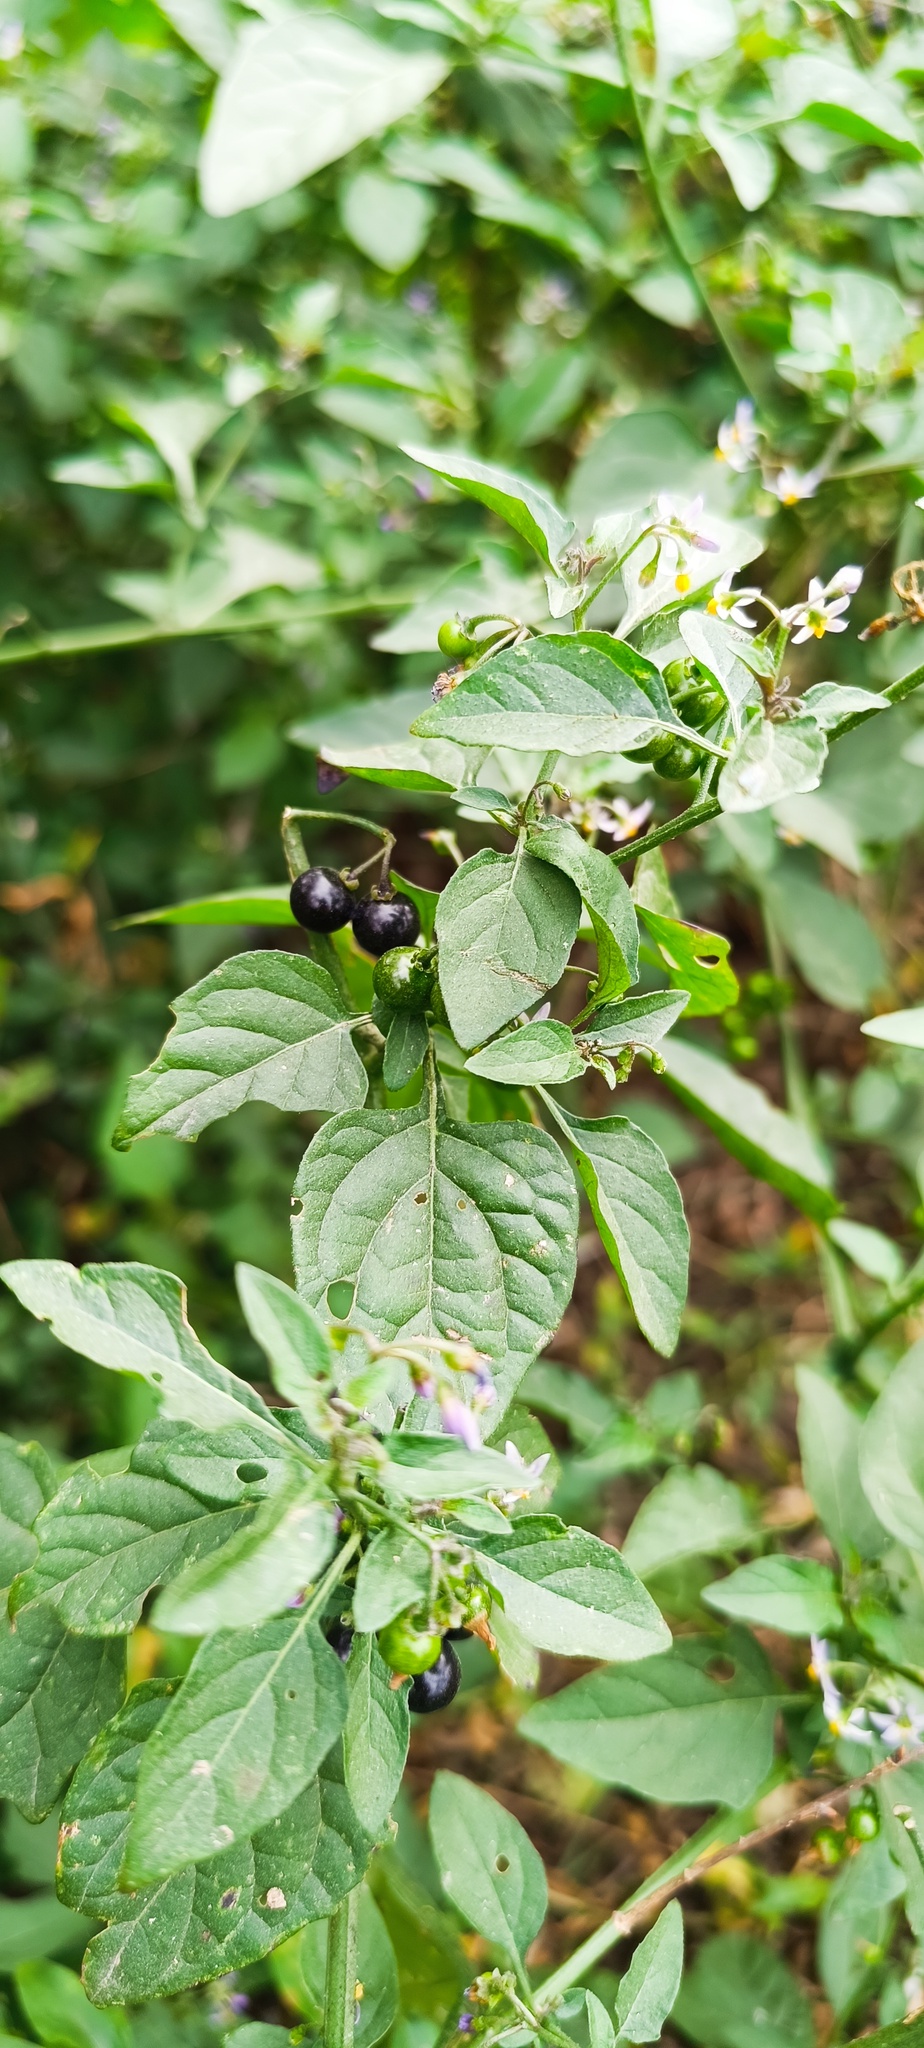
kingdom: Plantae
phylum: Tracheophyta
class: Magnoliopsida
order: Solanales
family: Solanaceae
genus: Solanum
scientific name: Solanum americanum
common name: American black nightshade
